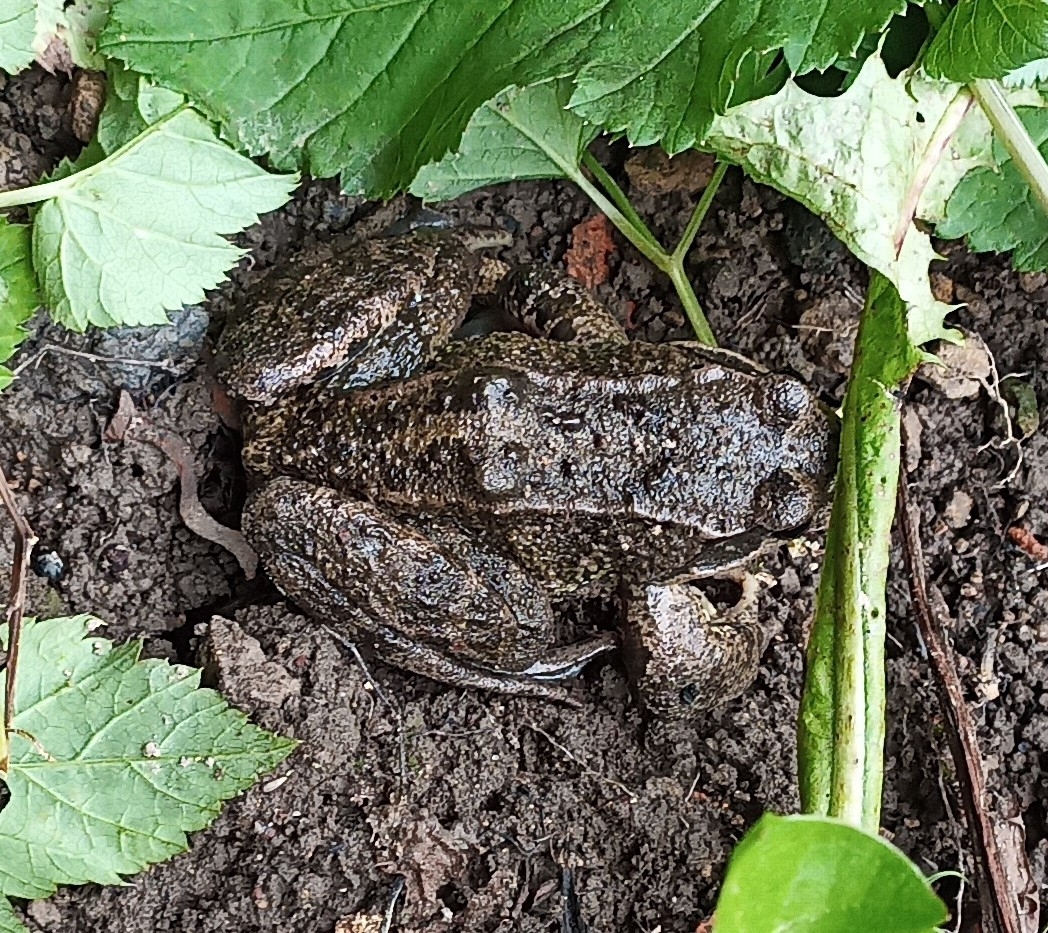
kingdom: Animalia
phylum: Chordata
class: Amphibia
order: Anura
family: Ranidae
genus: Rana
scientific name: Rana temporaria
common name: Common frog
